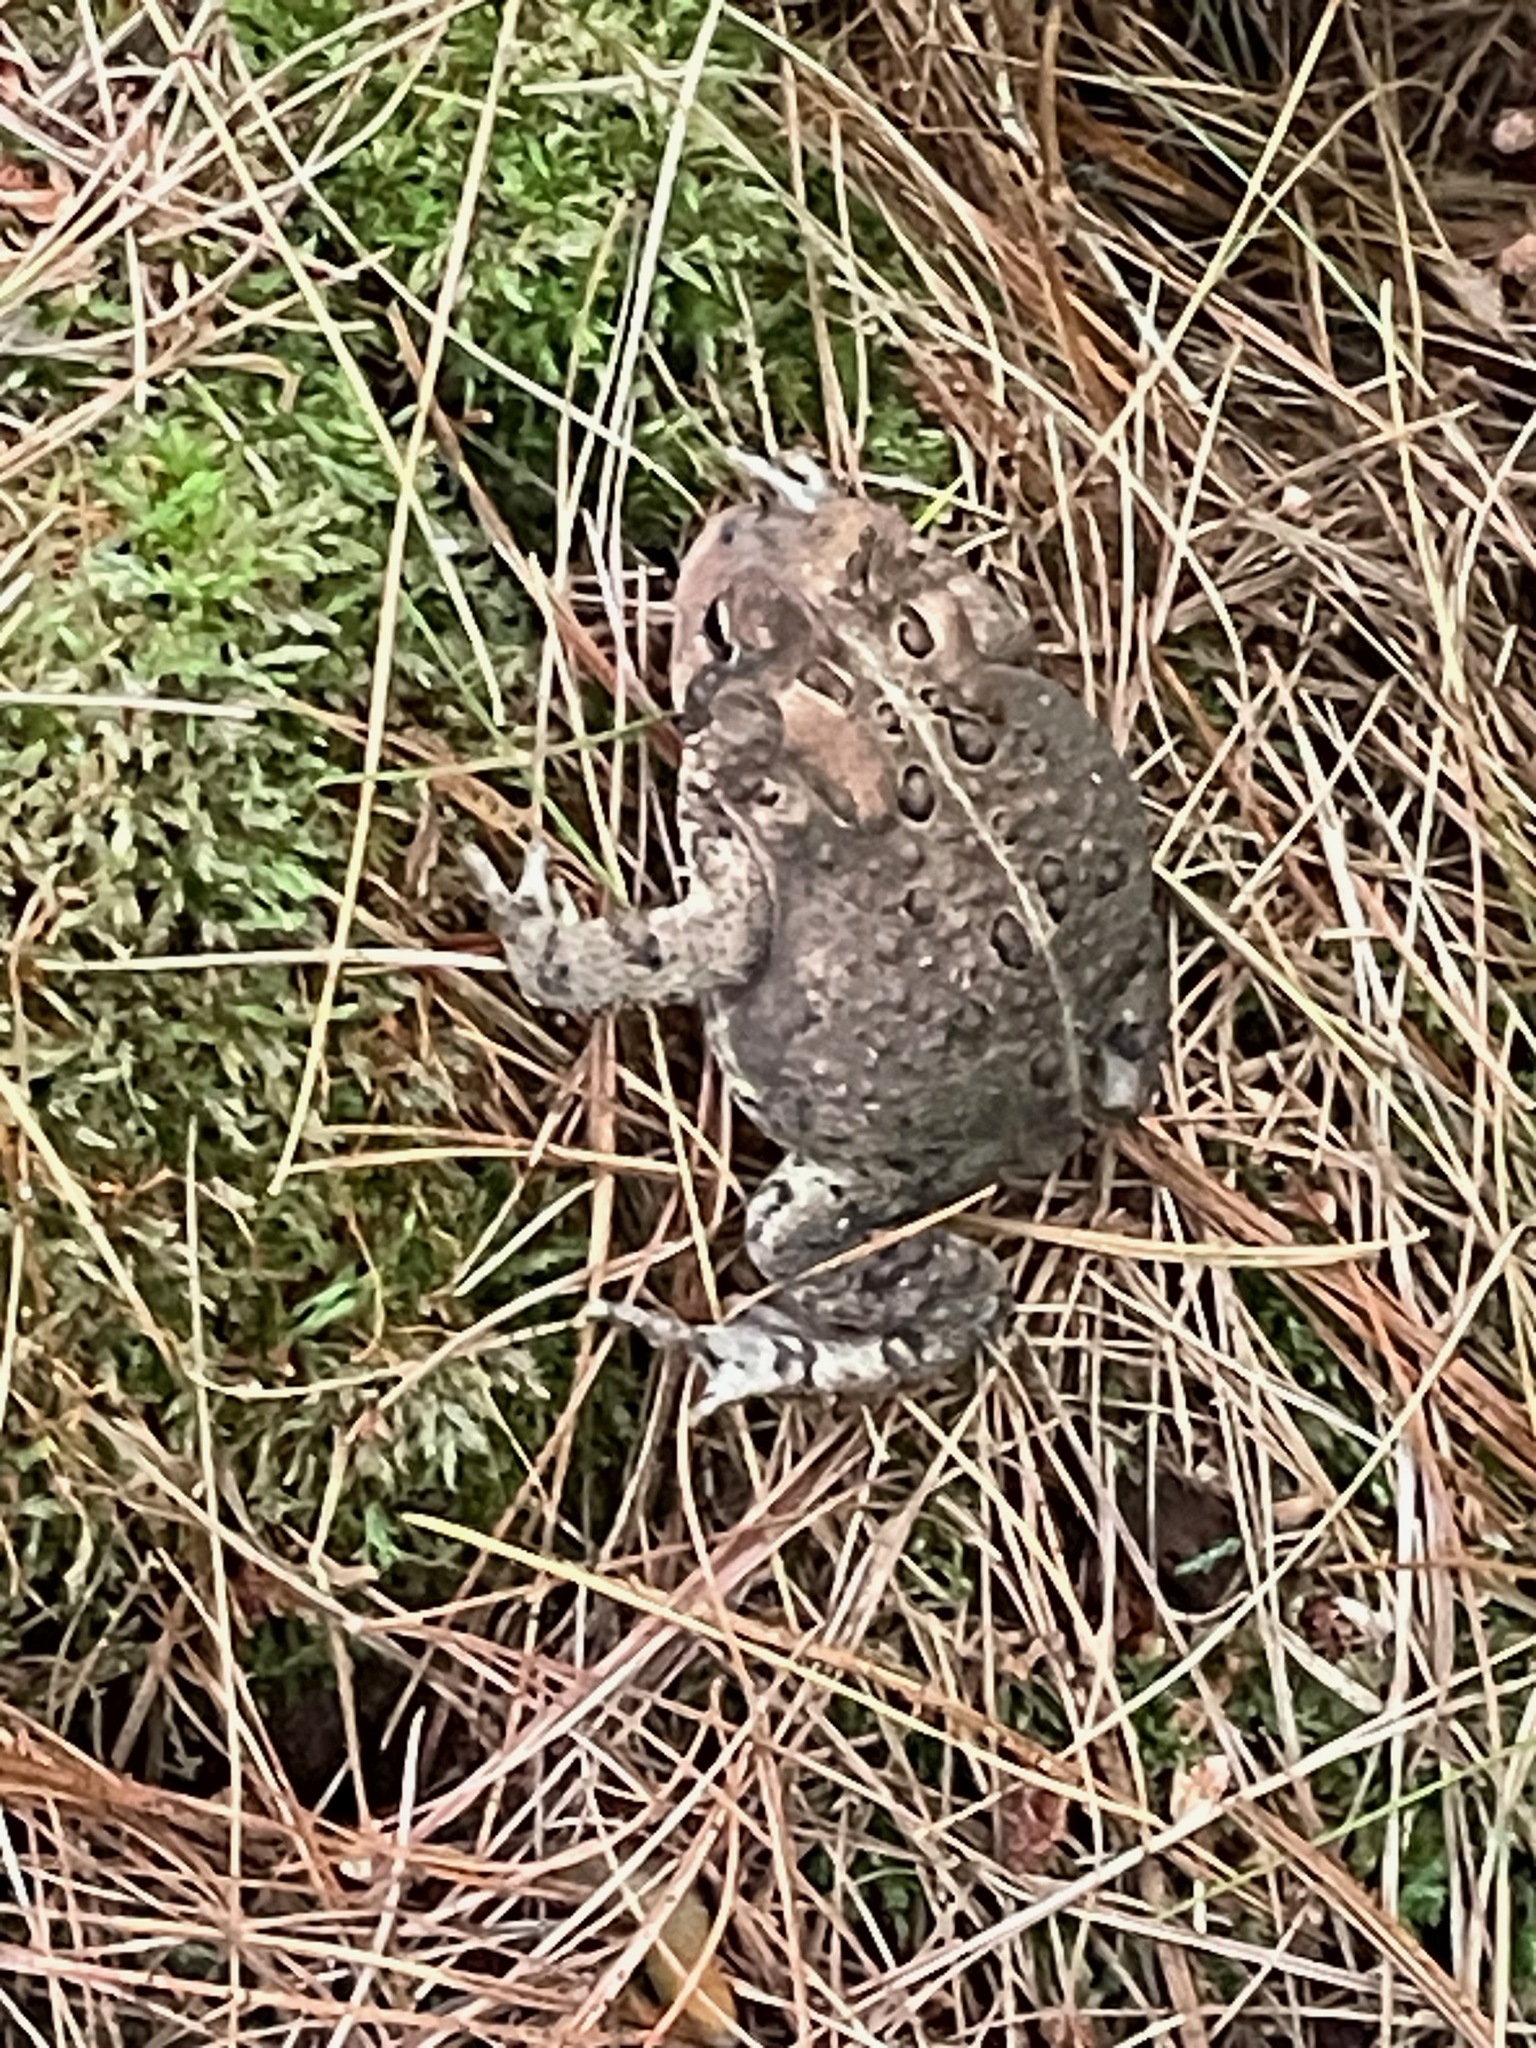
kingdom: Animalia
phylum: Chordata
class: Amphibia
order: Anura
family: Bufonidae
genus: Anaxyrus
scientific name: Anaxyrus americanus
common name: American toad
